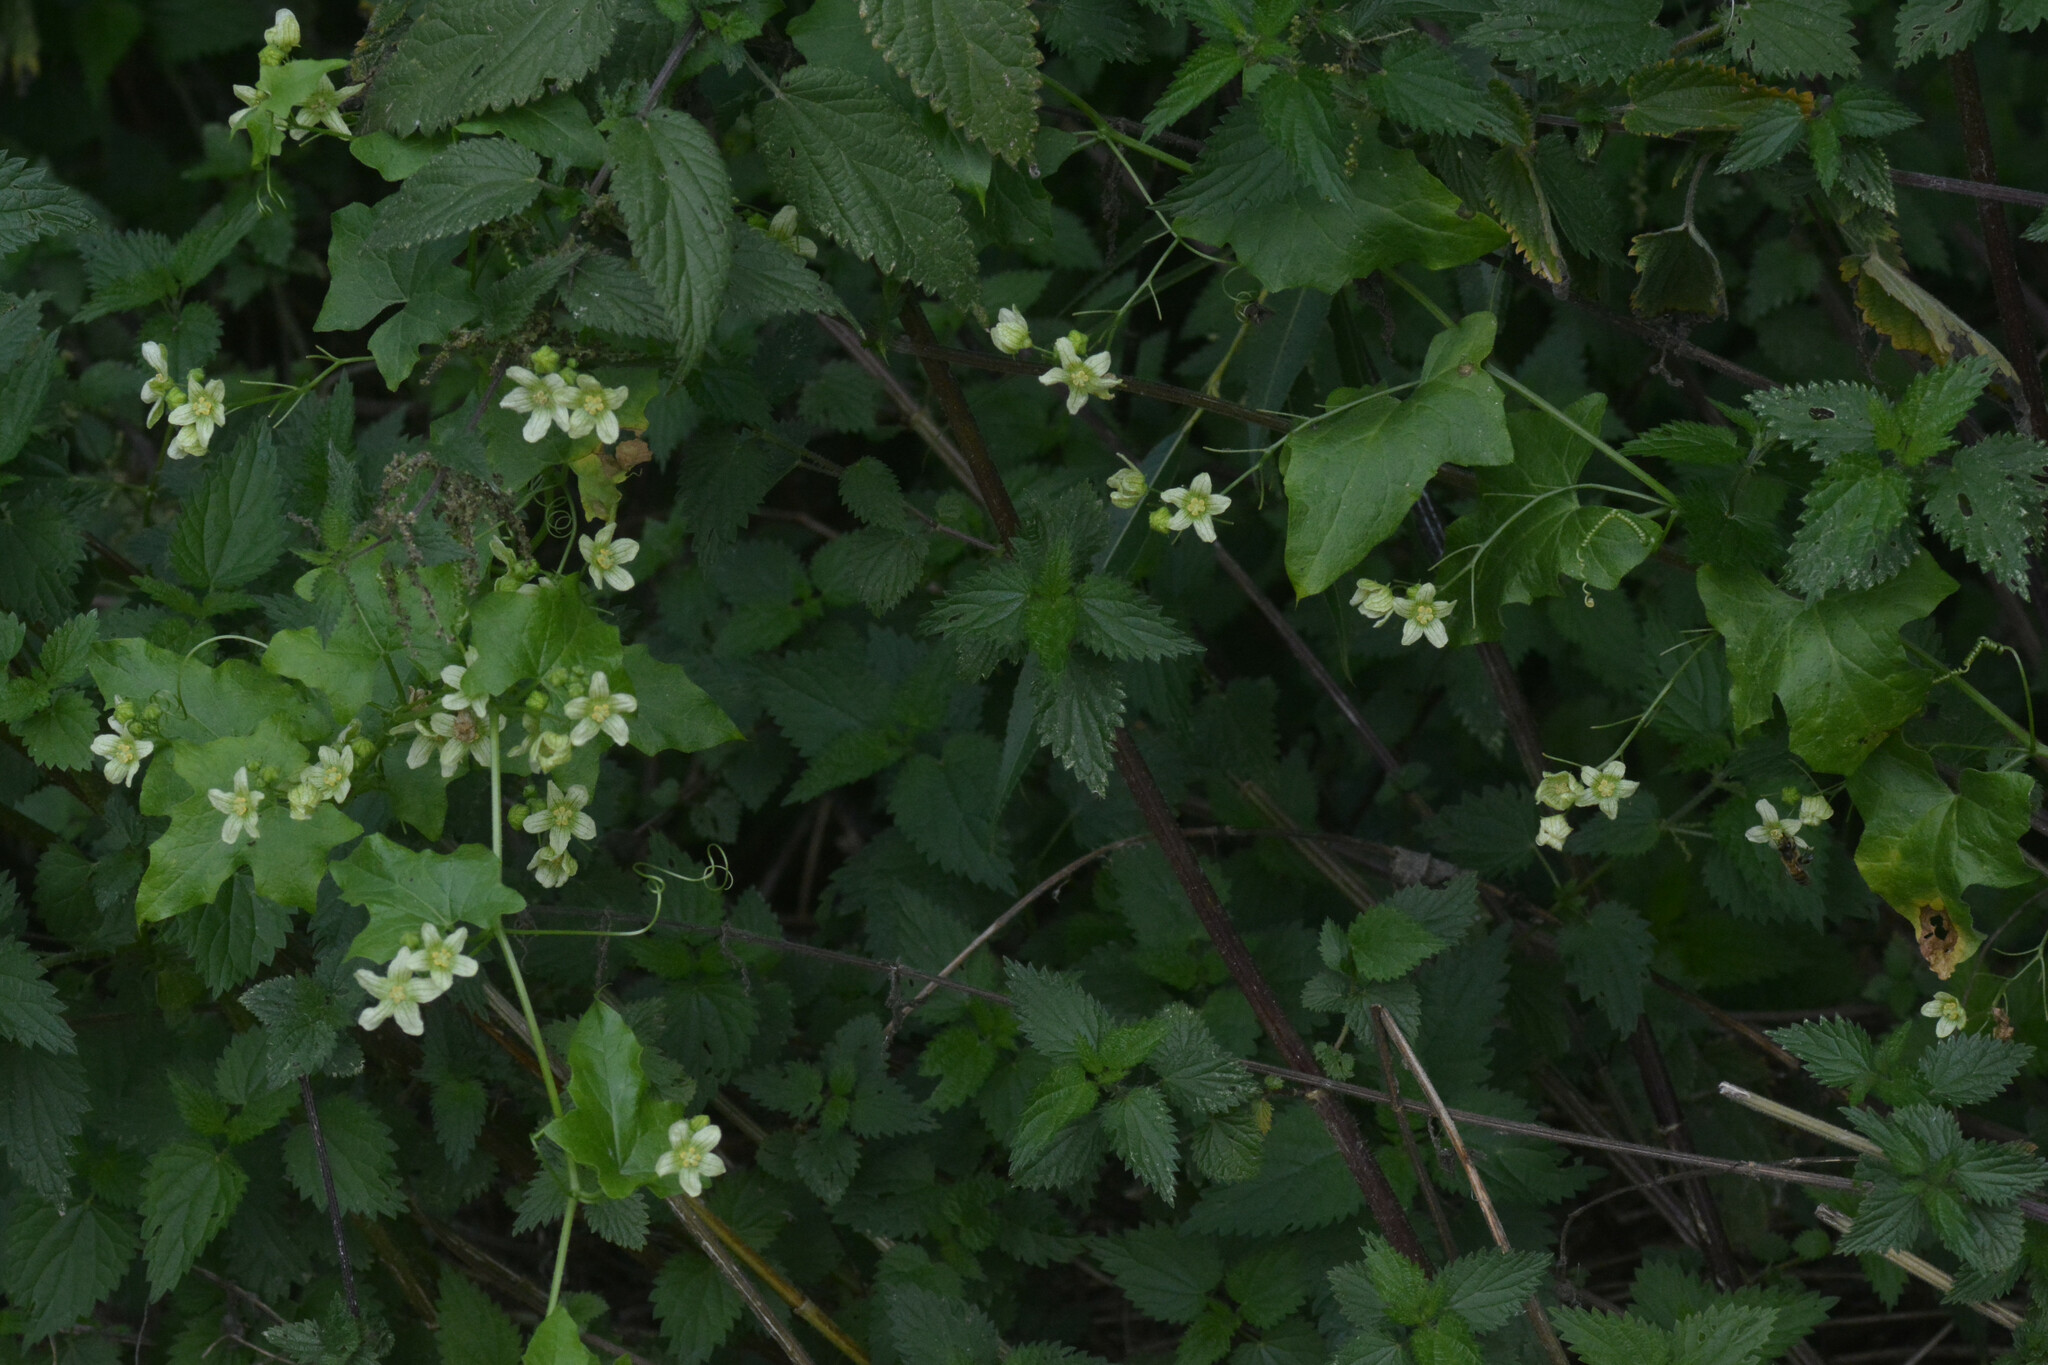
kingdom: Plantae
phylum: Tracheophyta
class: Magnoliopsida
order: Cucurbitales
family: Cucurbitaceae
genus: Bryonia
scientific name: Bryonia dioica
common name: White bryony
